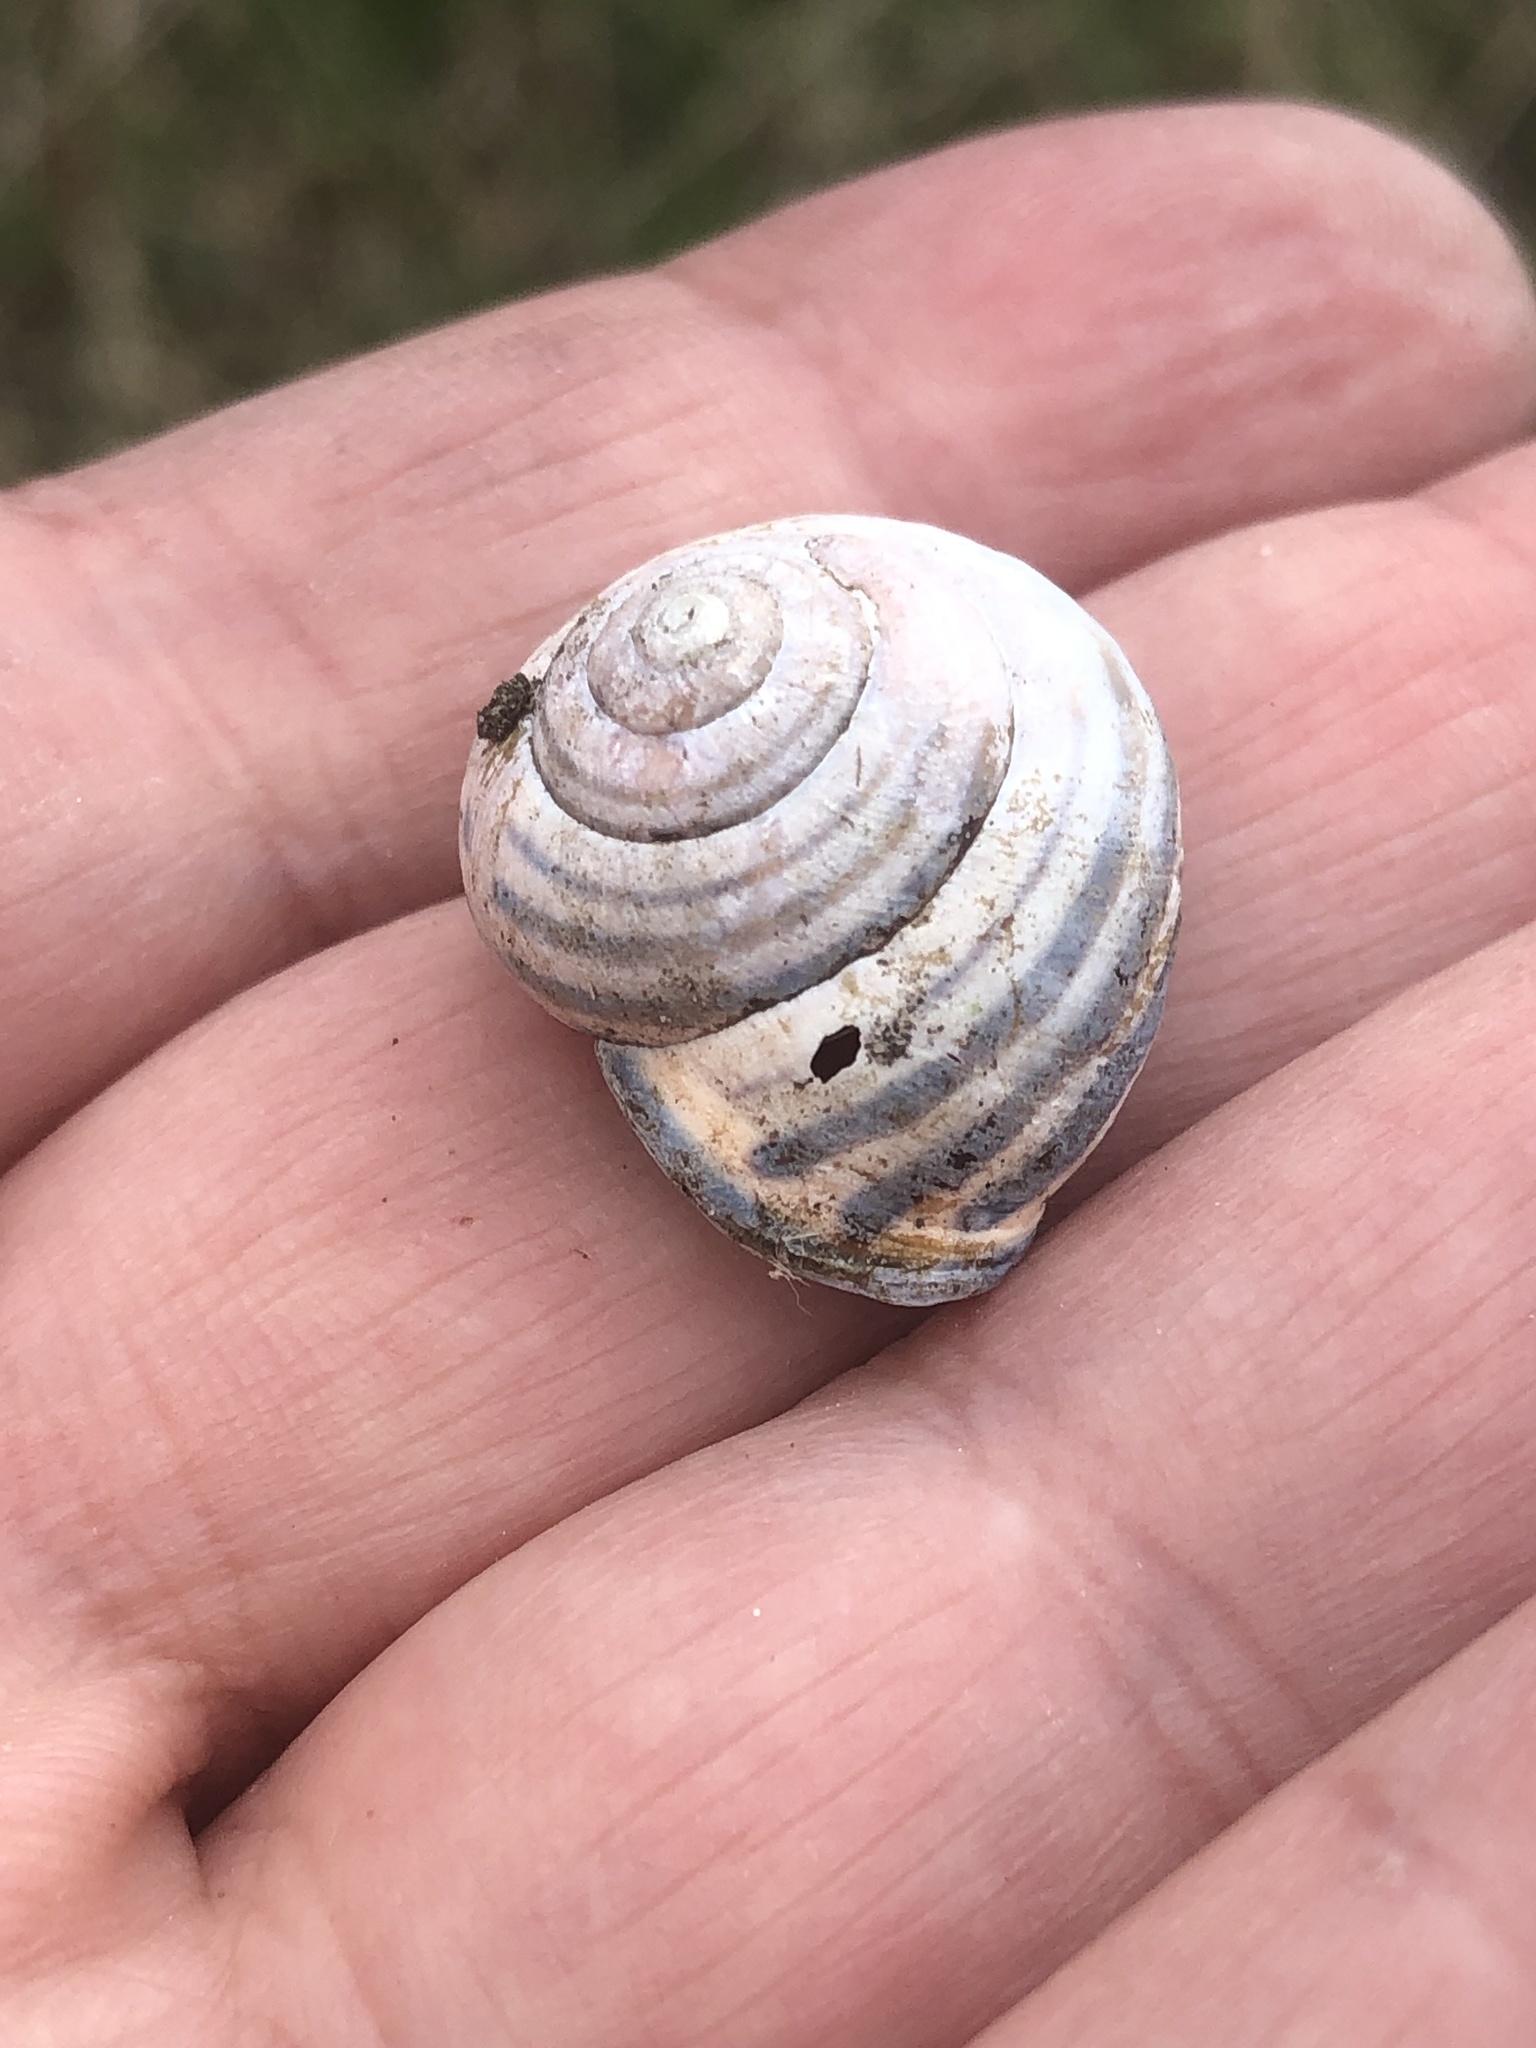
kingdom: Animalia
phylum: Mollusca
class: Gastropoda
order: Stylommatophora
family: Helicidae
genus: Cepaea
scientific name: Cepaea nemoralis
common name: Grovesnail
